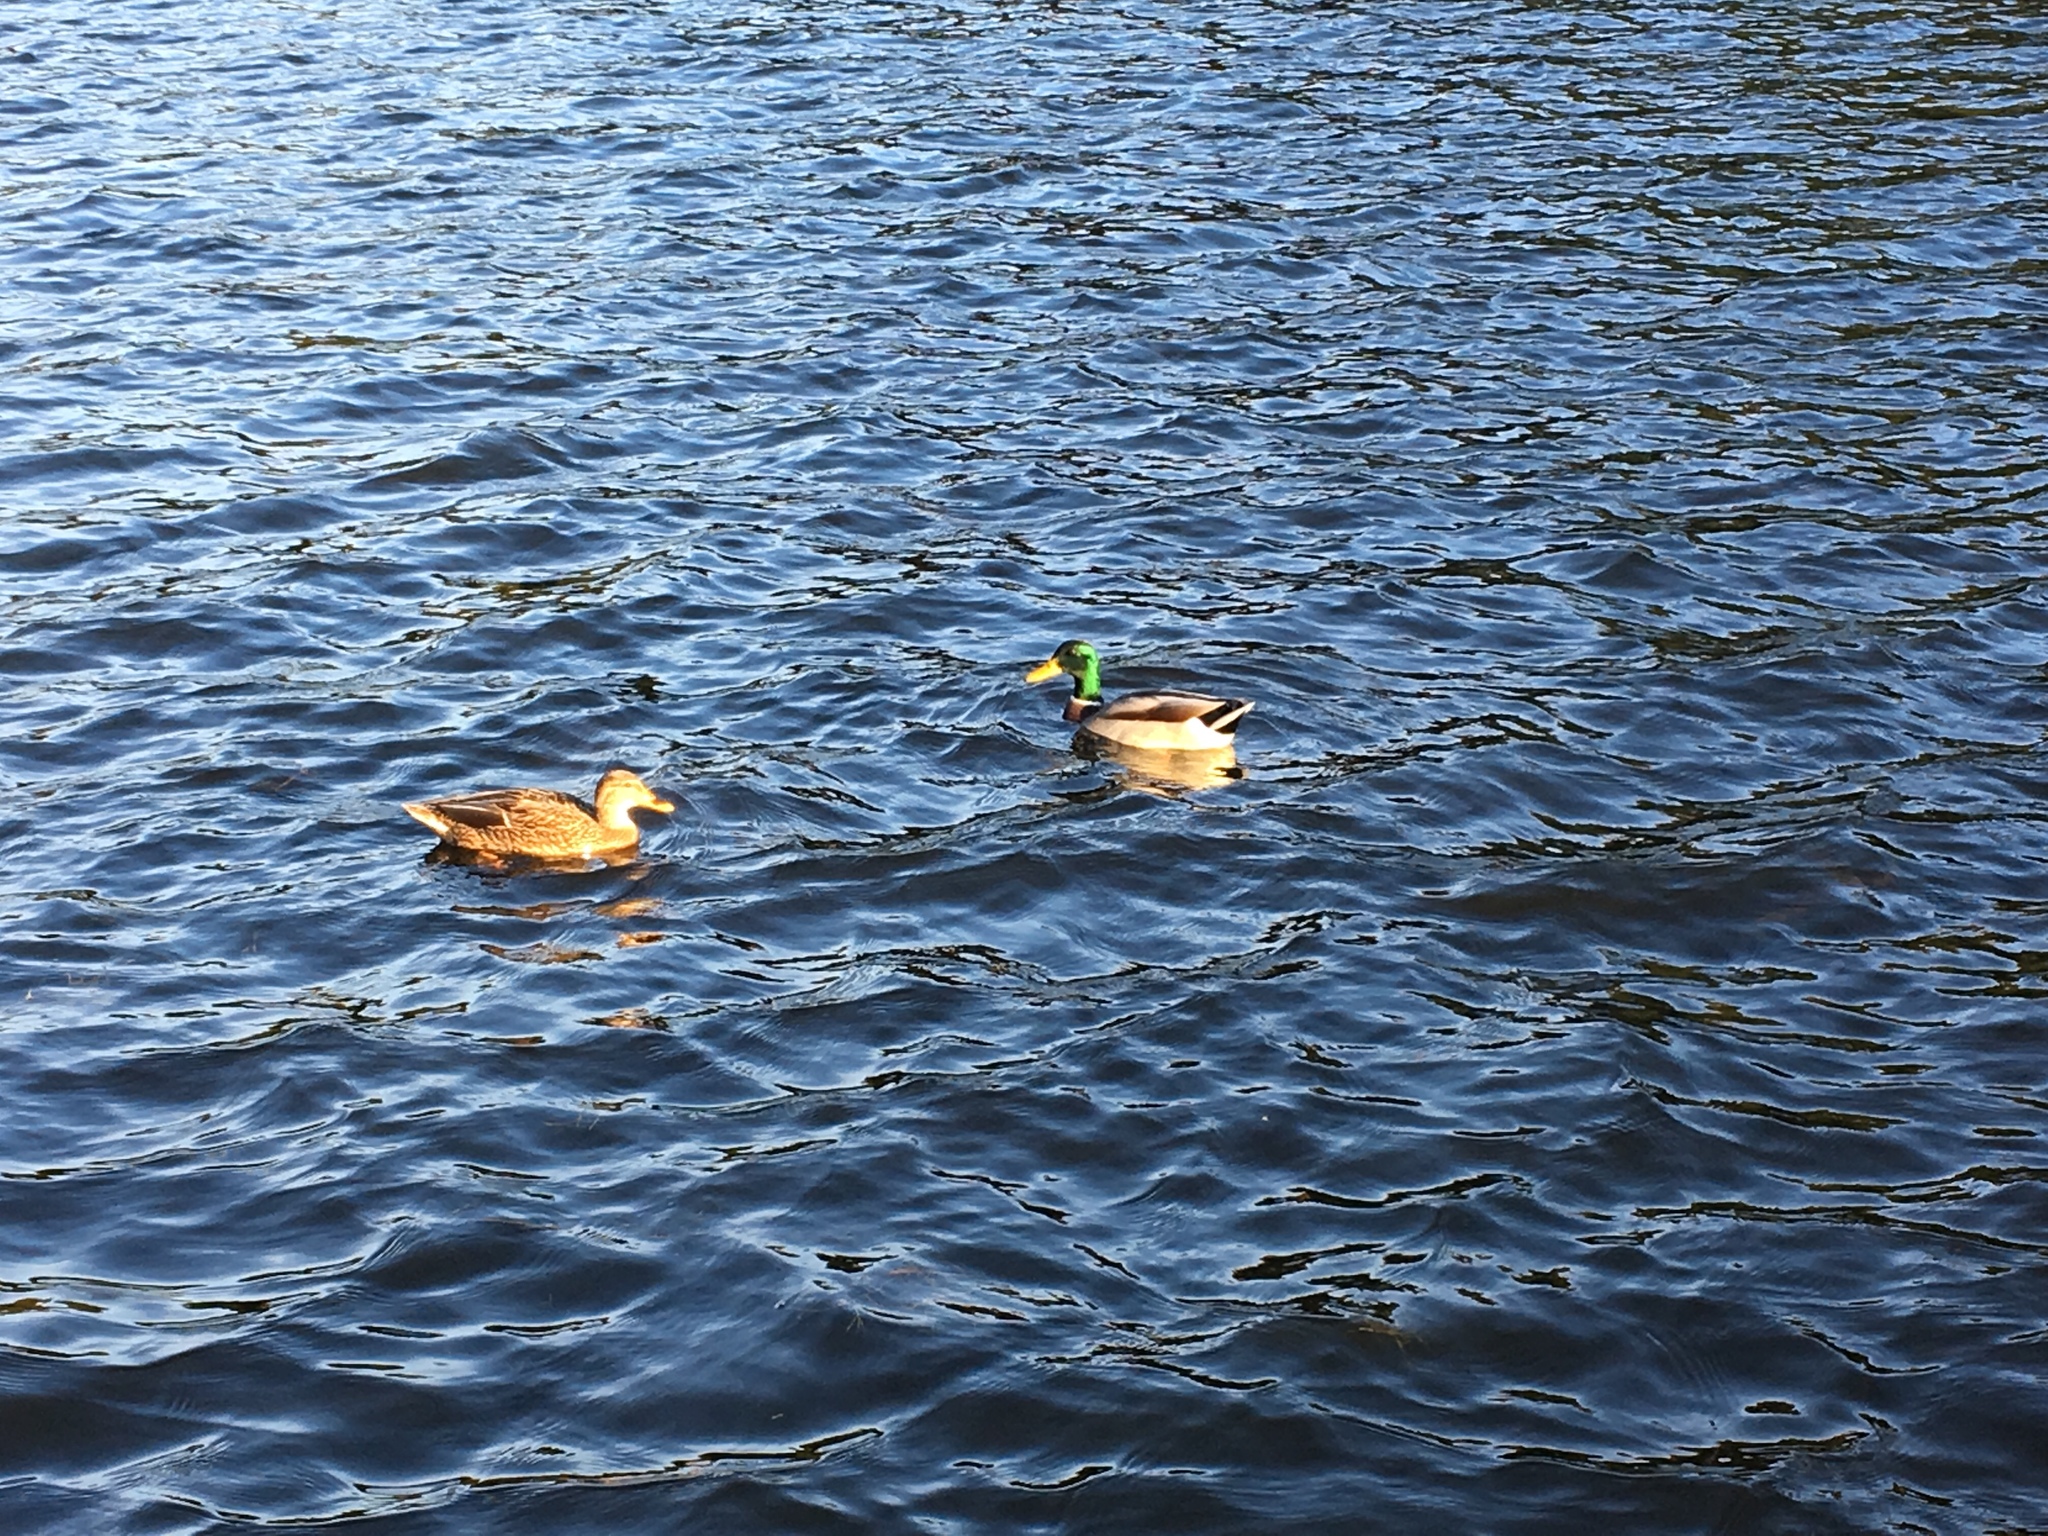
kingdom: Animalia
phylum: Chordata
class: Aves
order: Anseriformes
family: Anatidae
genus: Anas
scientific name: Anas platyrhynchos
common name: Mallard
